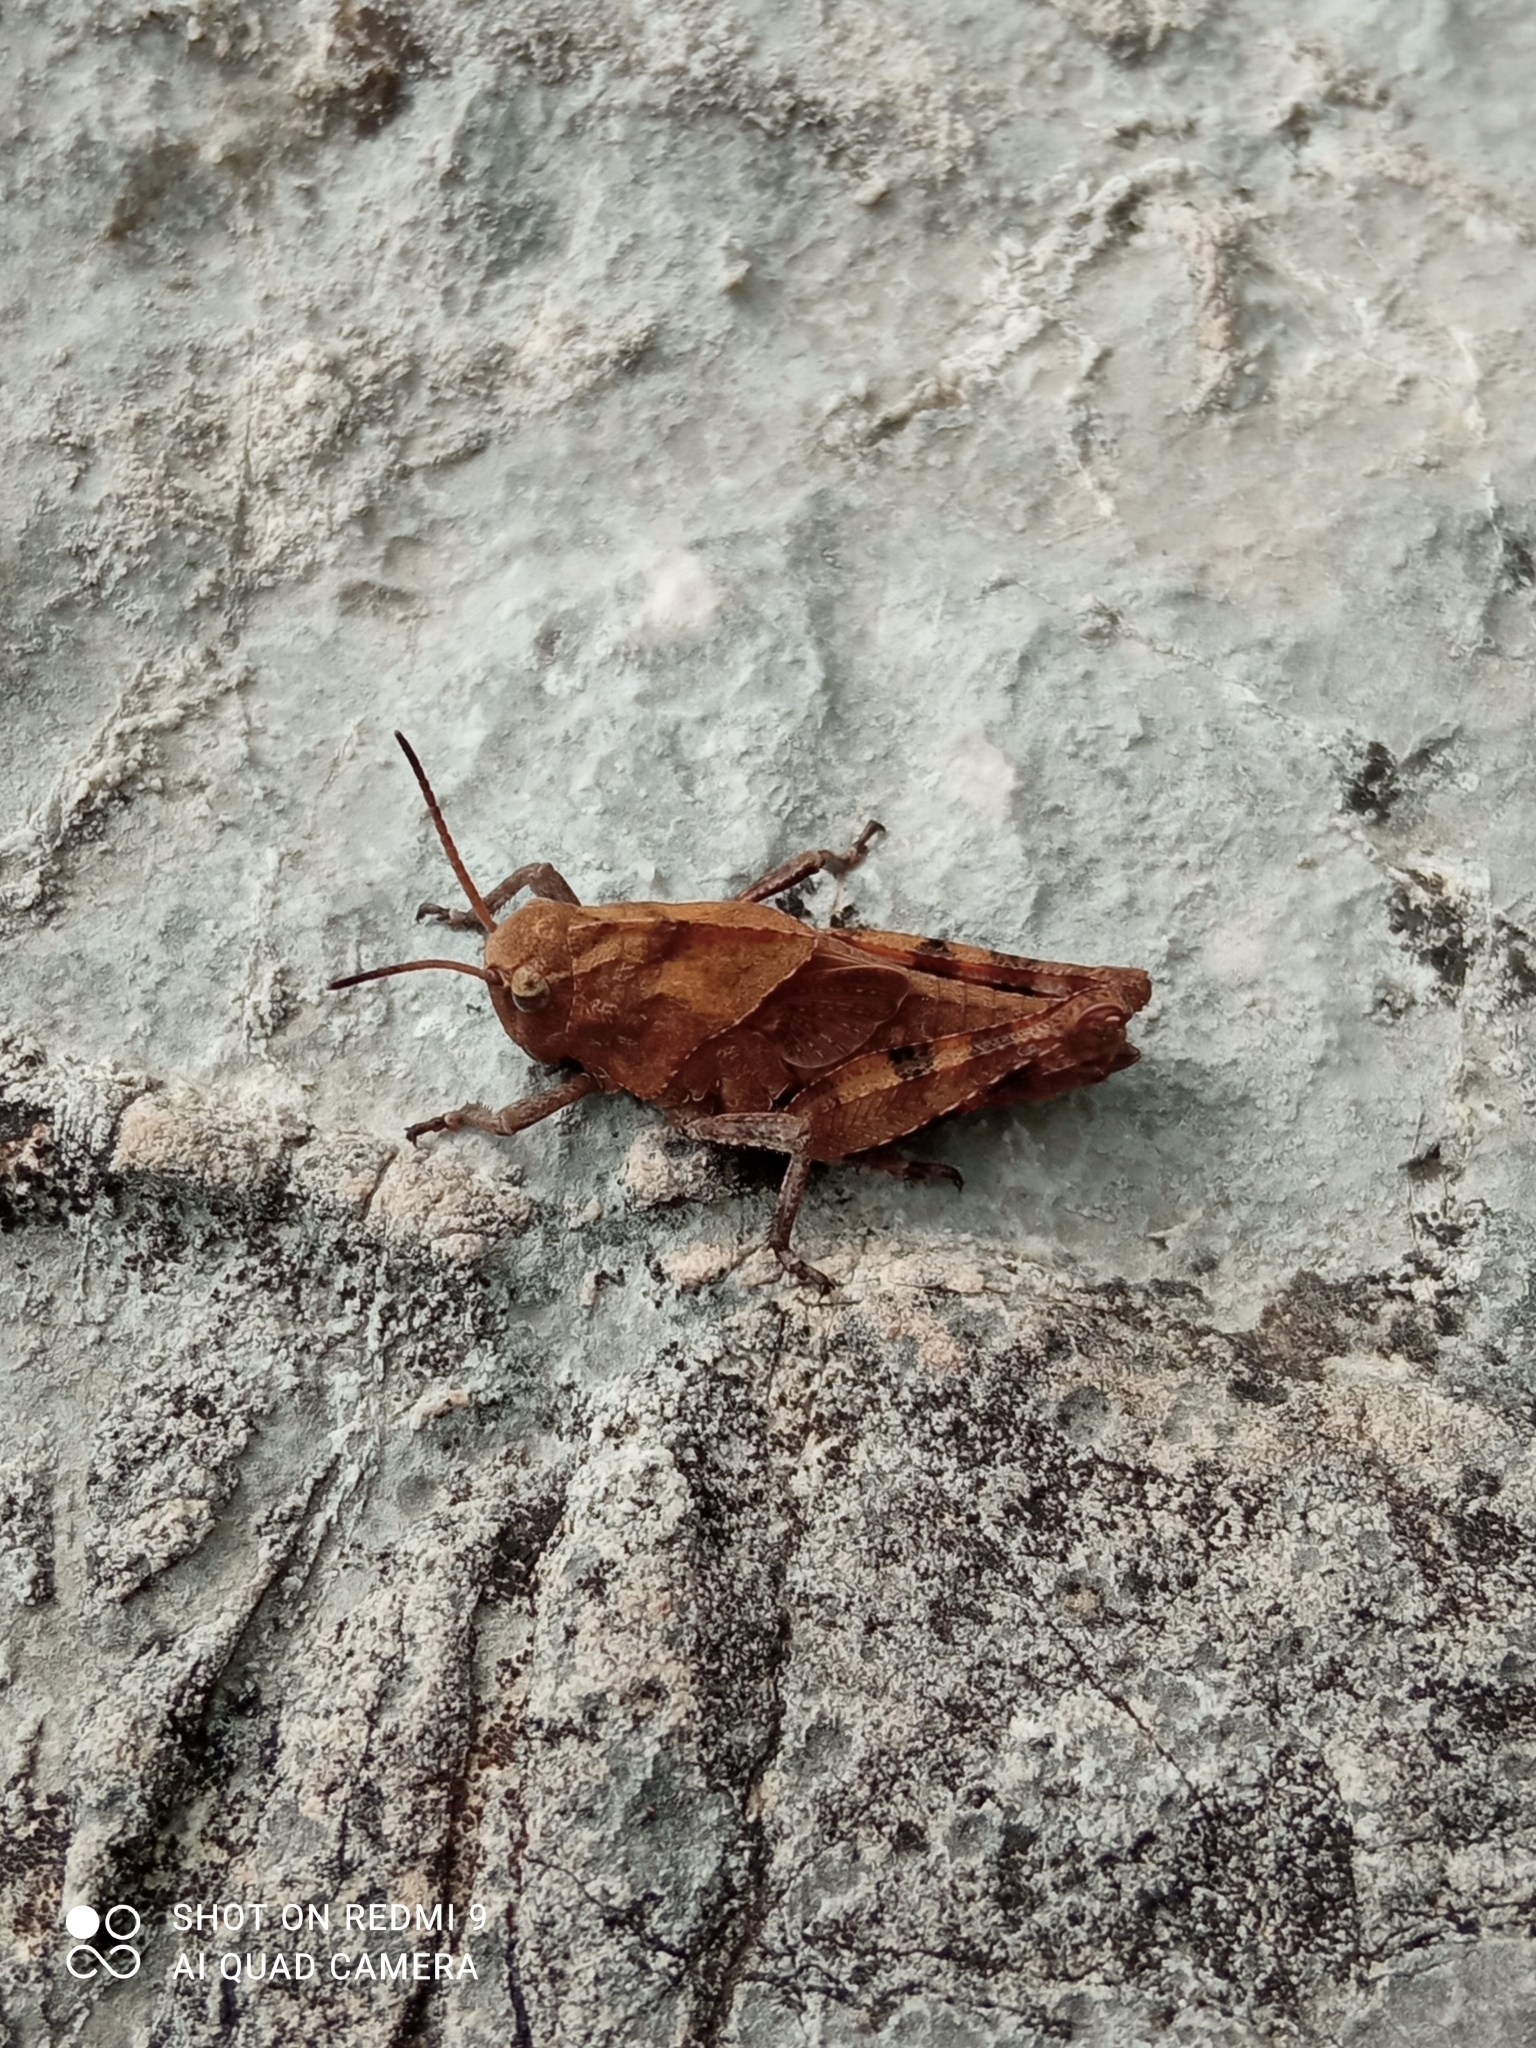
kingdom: Animalia
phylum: Arthropoda
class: Insecta
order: Orthoptera
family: Acrididae
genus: Psophus
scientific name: Psophus stridulus
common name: Rattle grasshopper
